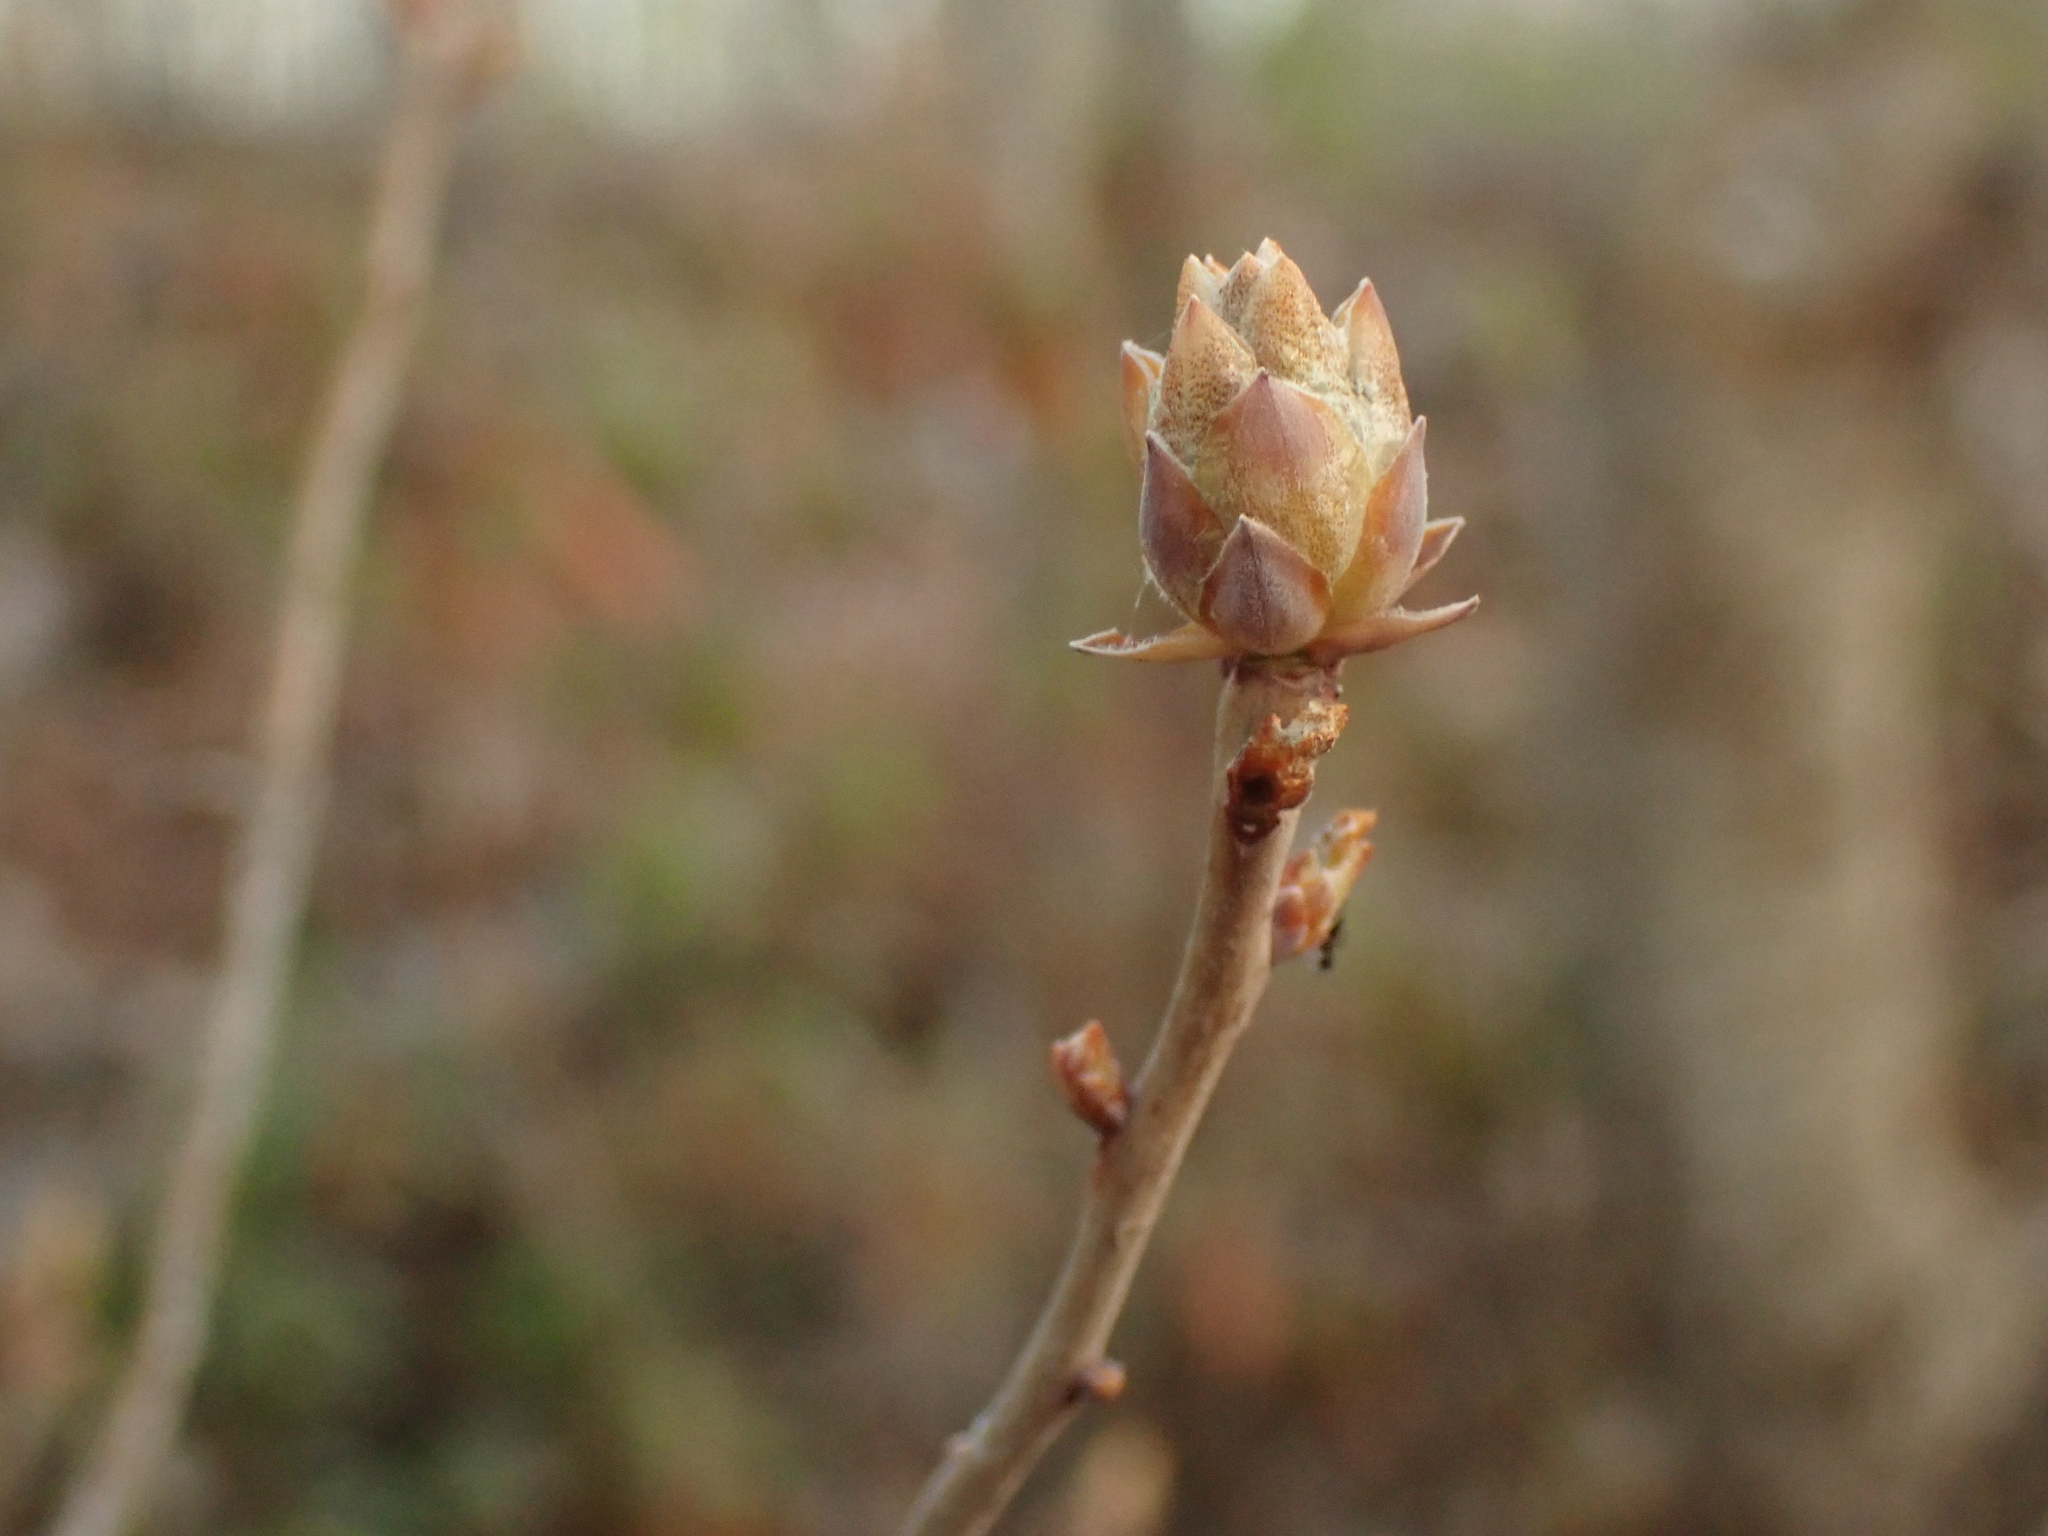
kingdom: Plantae
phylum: Tracheophyta
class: Magnoliopsida
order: Ericales
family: Ericaceae
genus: Rhododendron
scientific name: Rhododendron canadense
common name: Rhodora
